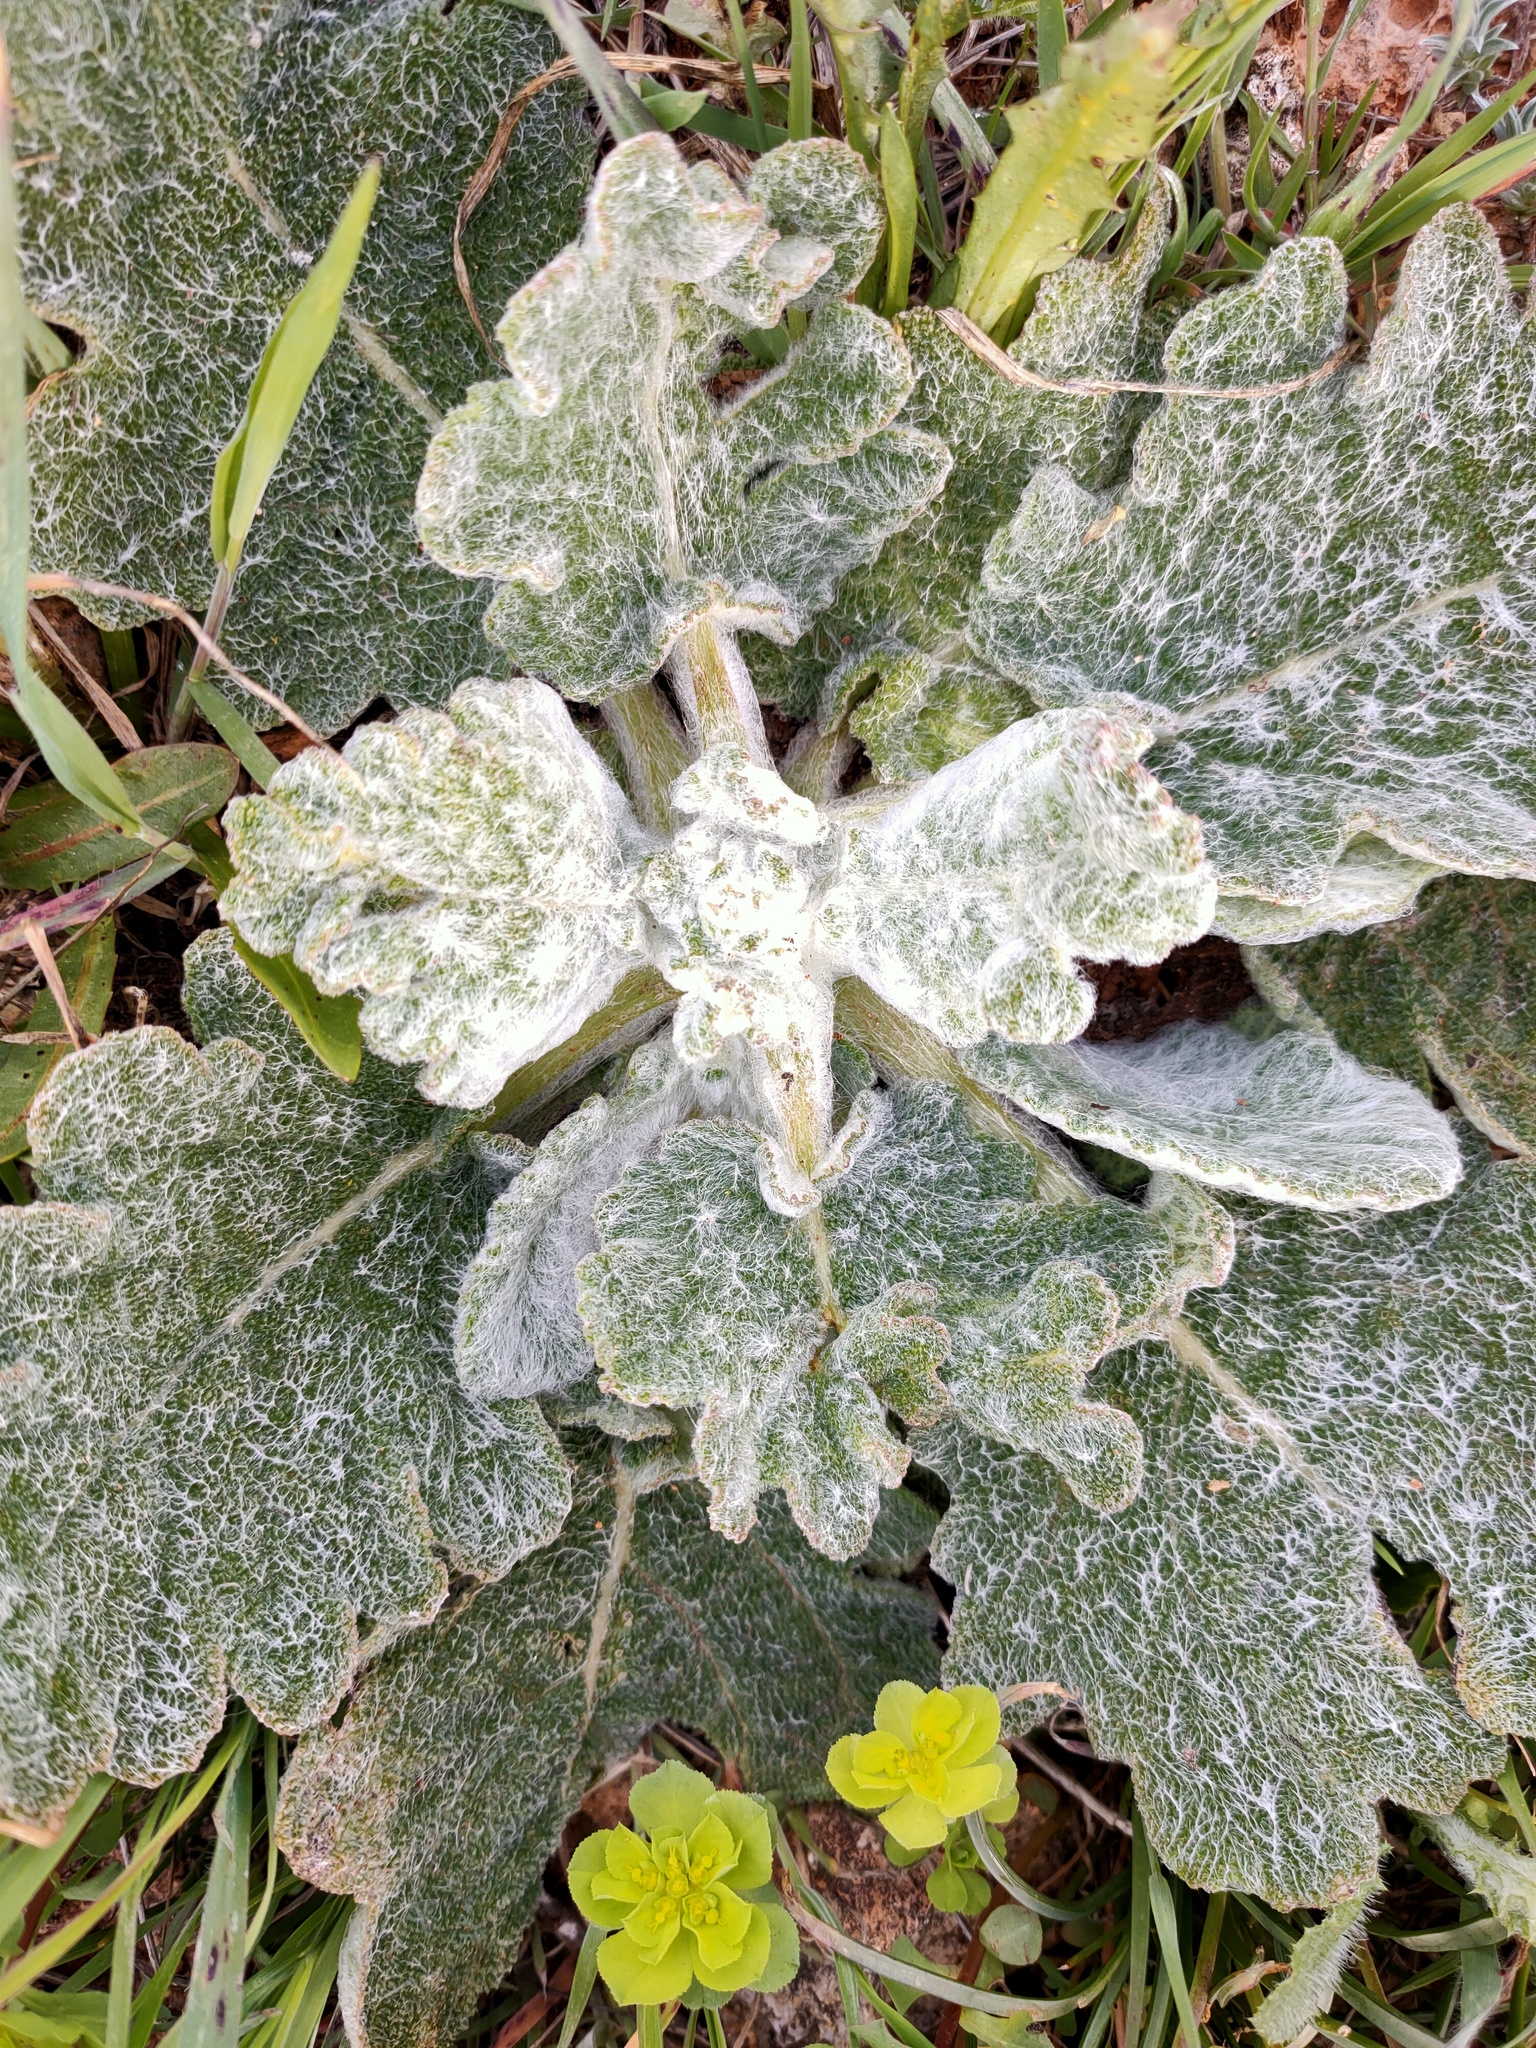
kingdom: Plantae
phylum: Tracheophyta
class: Magnoliopsida
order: Lamiales
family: Lamiaceae
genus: Salvia
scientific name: Salvia aethiopis
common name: Mediterranean sage
